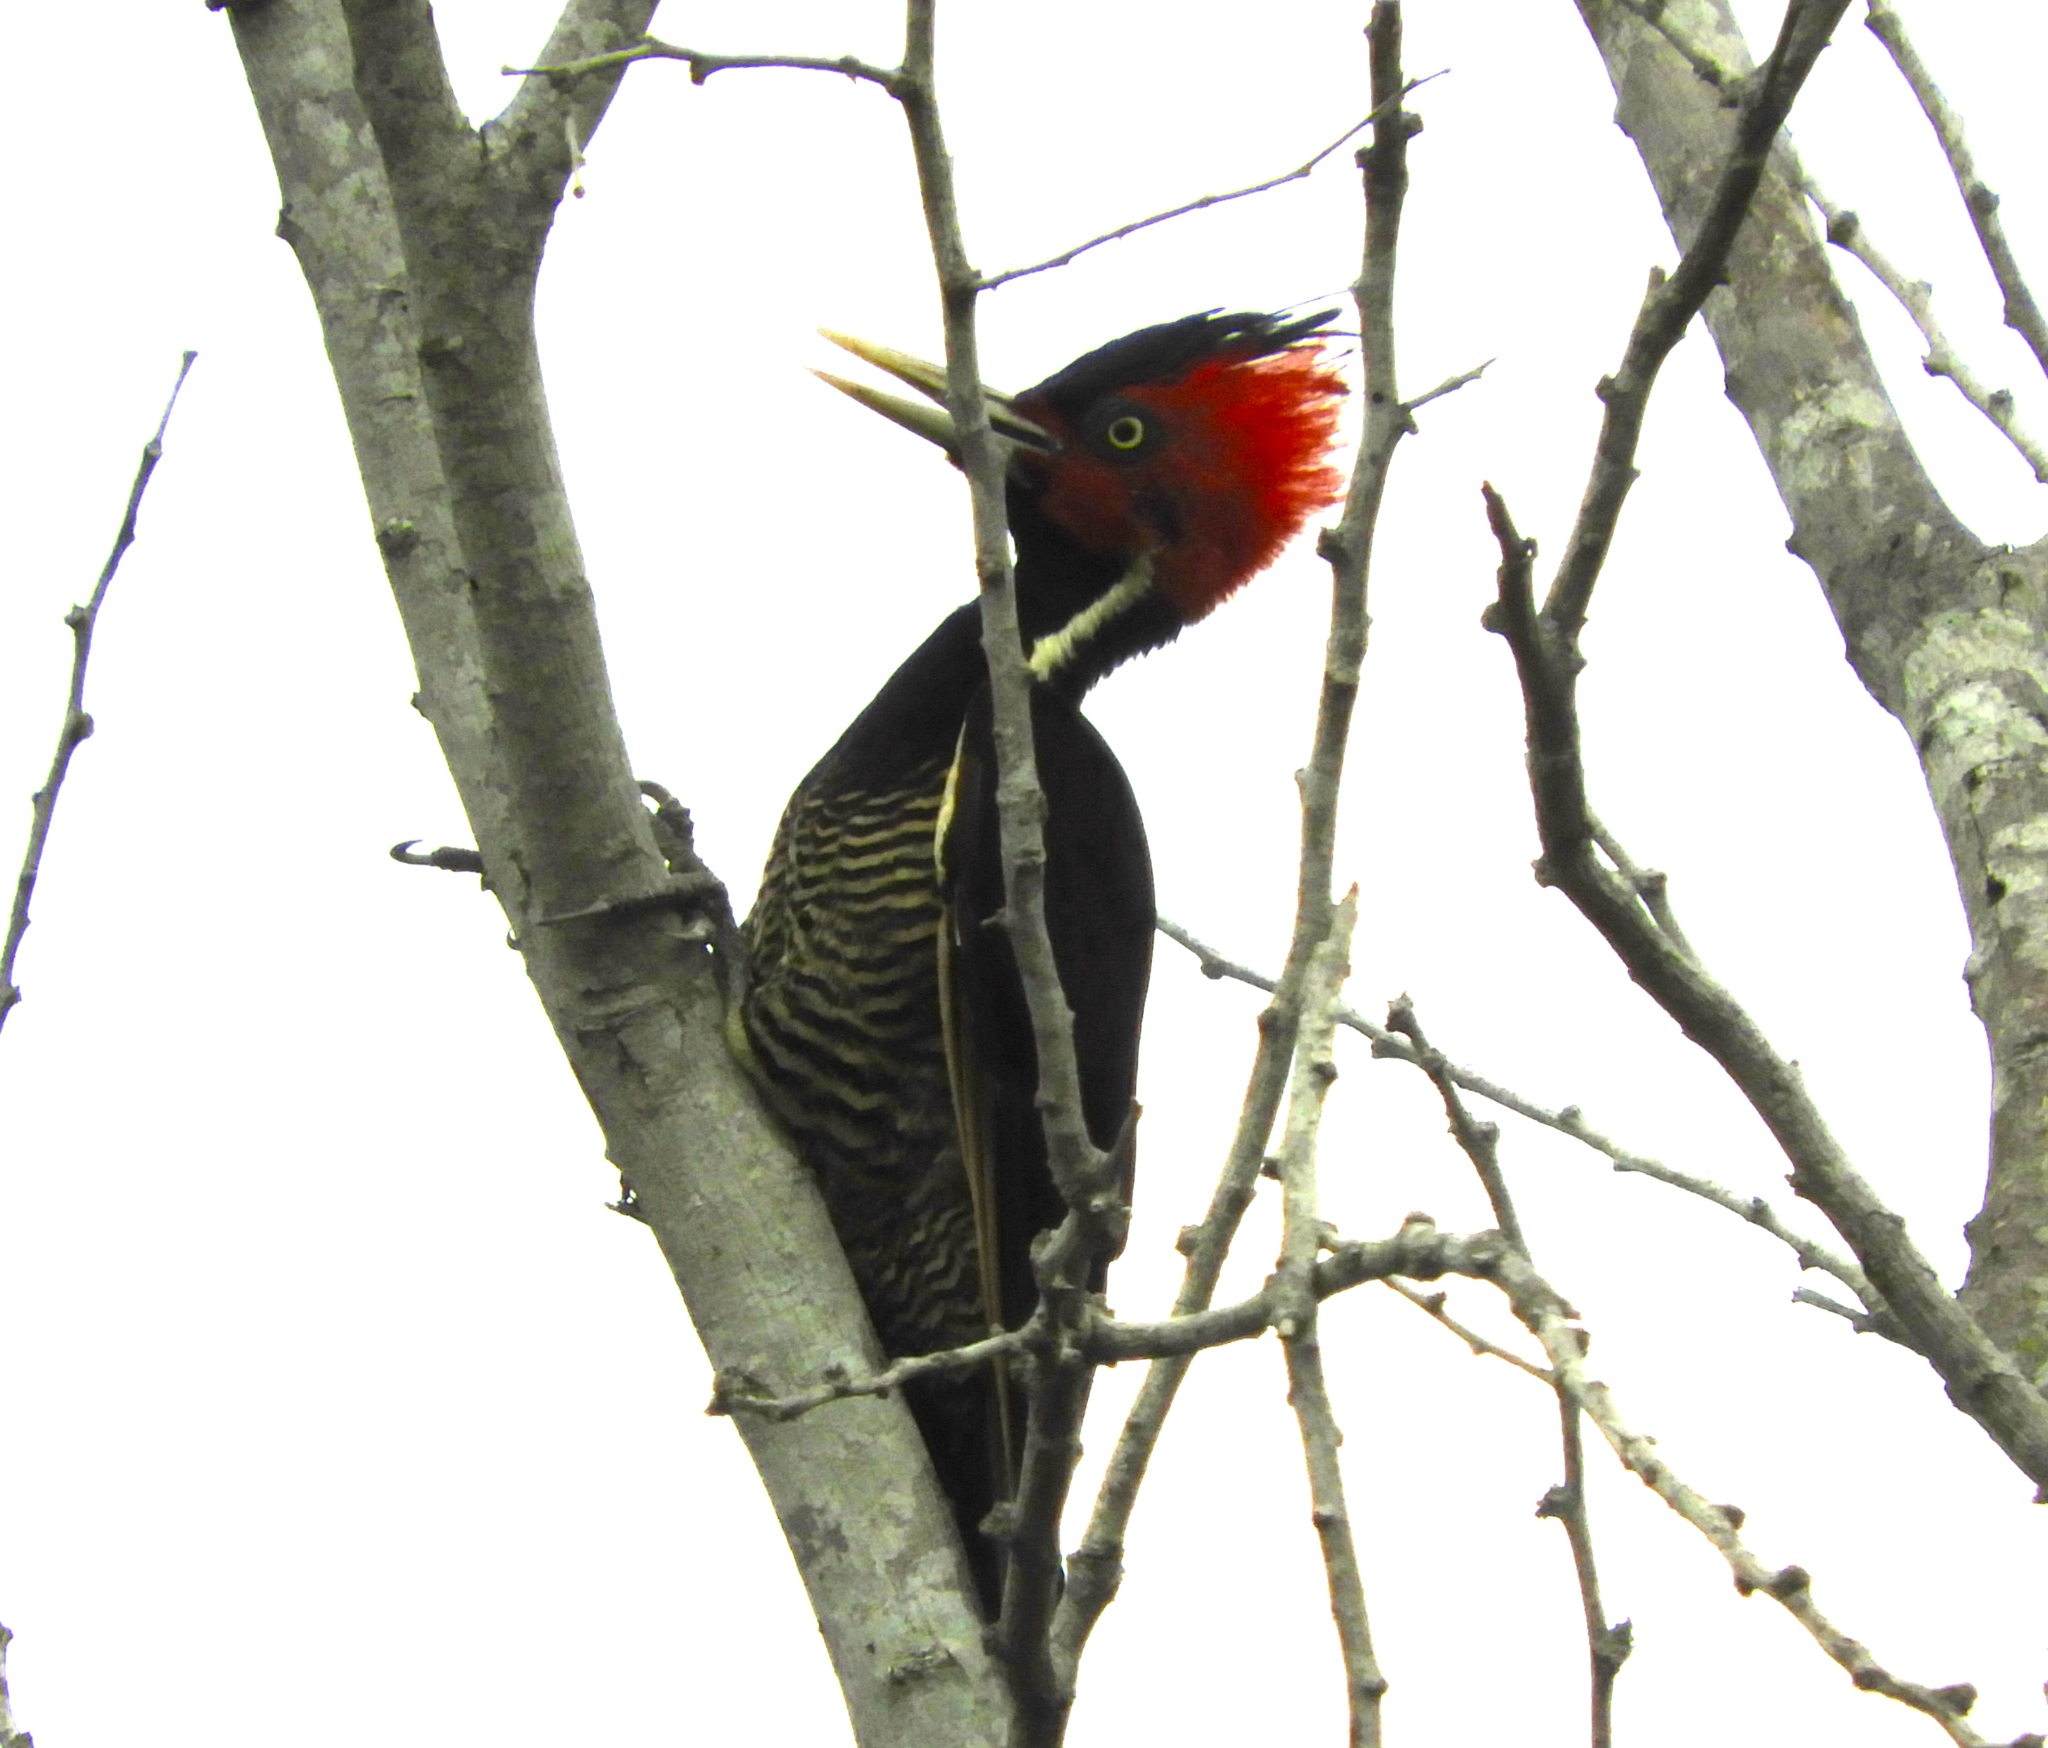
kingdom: Animalia
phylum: Chordata
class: Aves
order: Piciformes
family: Picidae
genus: Campephilus
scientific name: Campephilus guatemalensis
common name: Pale-billed woodpecker
